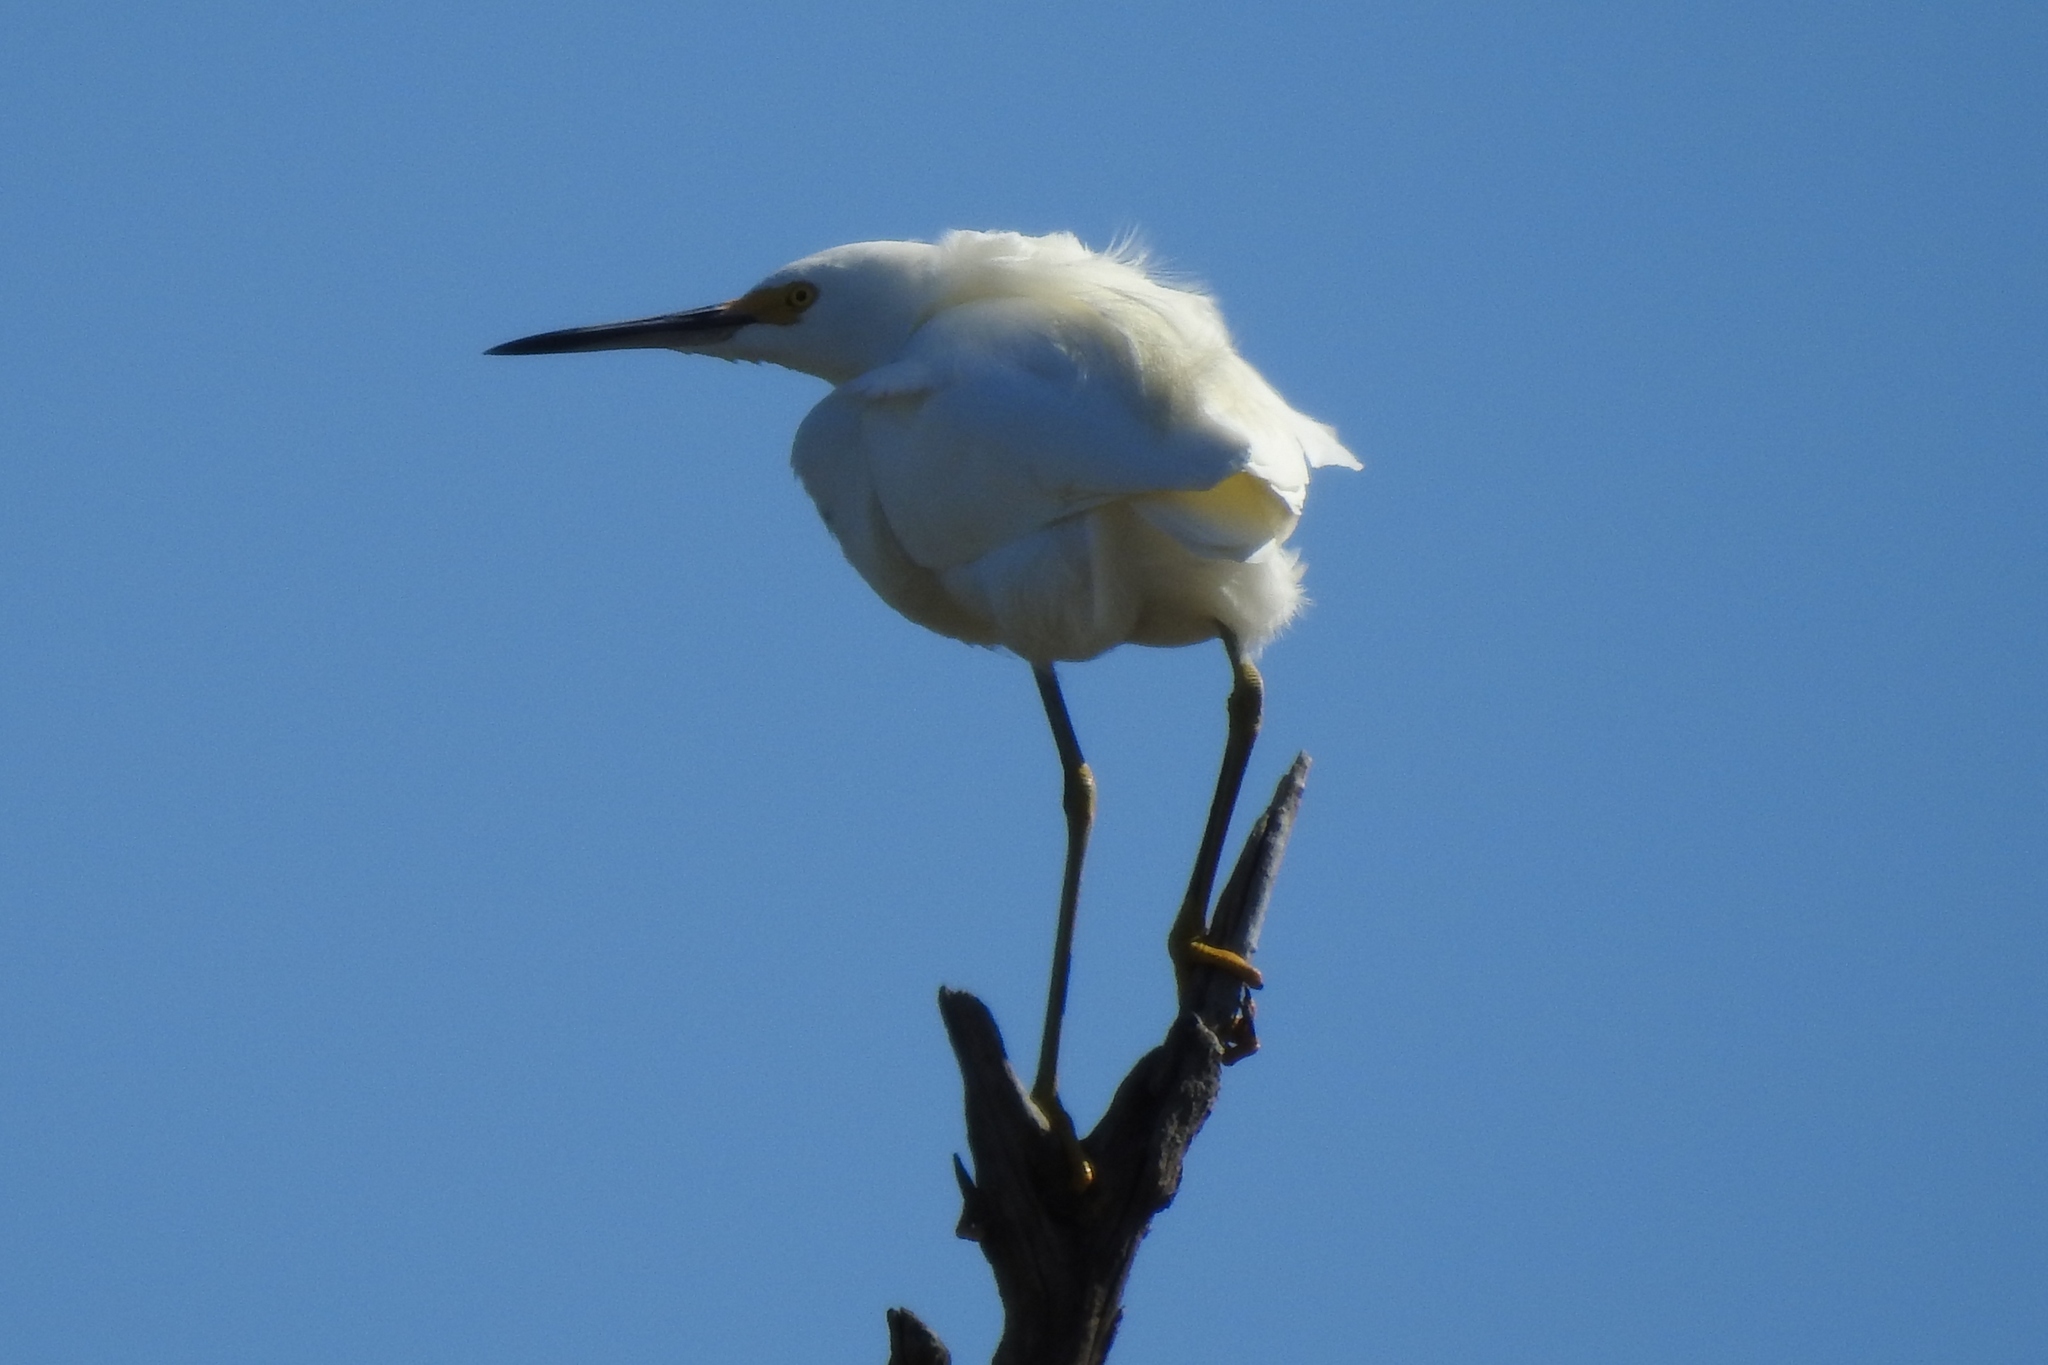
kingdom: Animalia
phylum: Chordata
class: Aves
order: Pelecaniformes
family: Ardeidae
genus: Egretta
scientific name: Egretta thula
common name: Snowy egret
